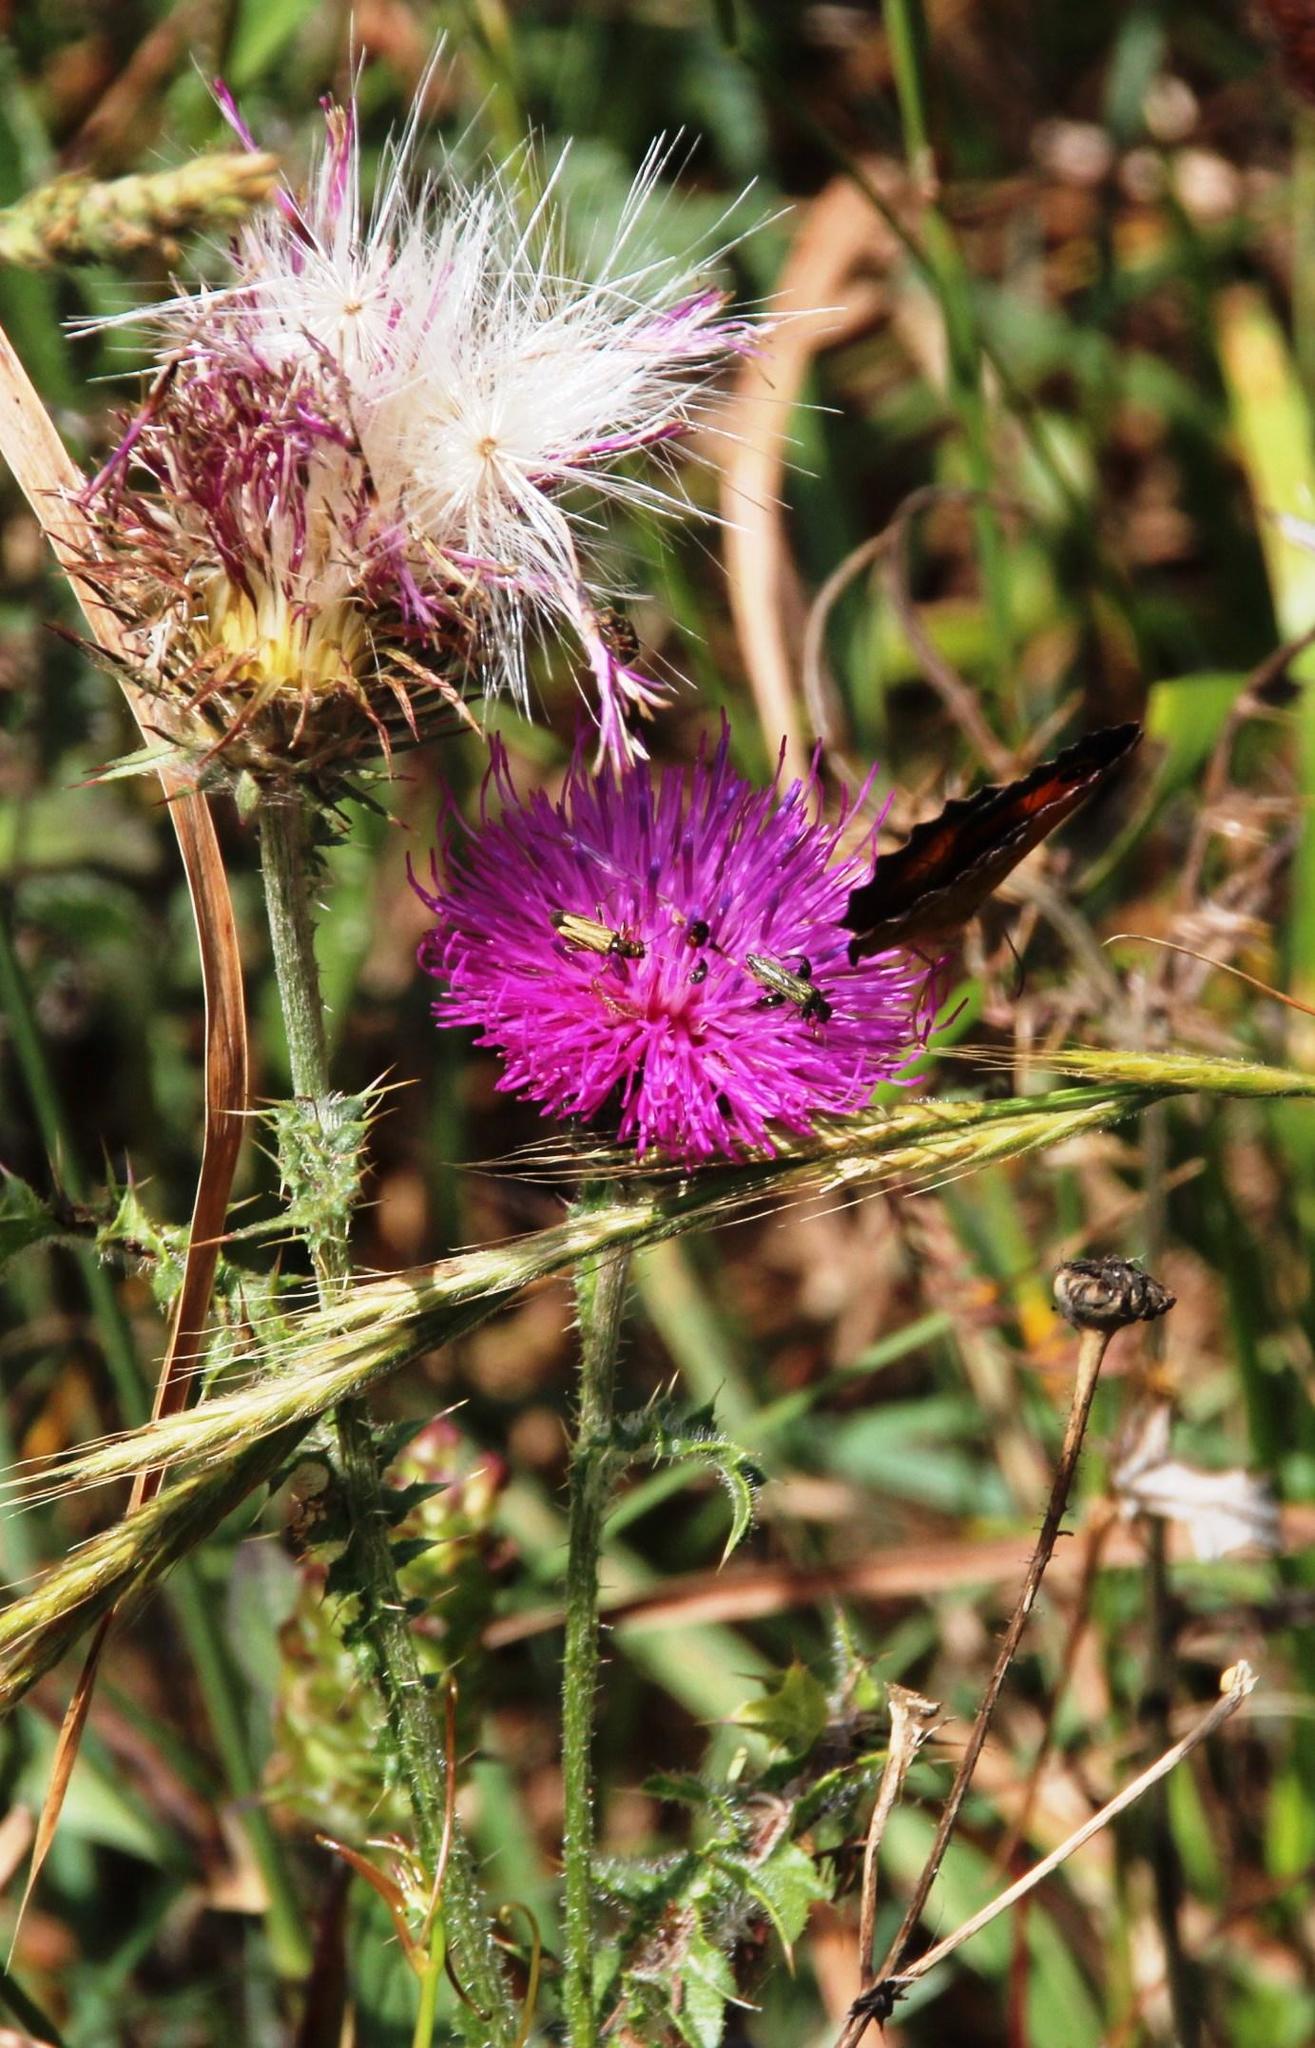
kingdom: Plantae
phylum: Tracheophyta
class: Magnoliopsida
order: Asterales
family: Asteraceae
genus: Carduus
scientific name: Carduus broteroi
